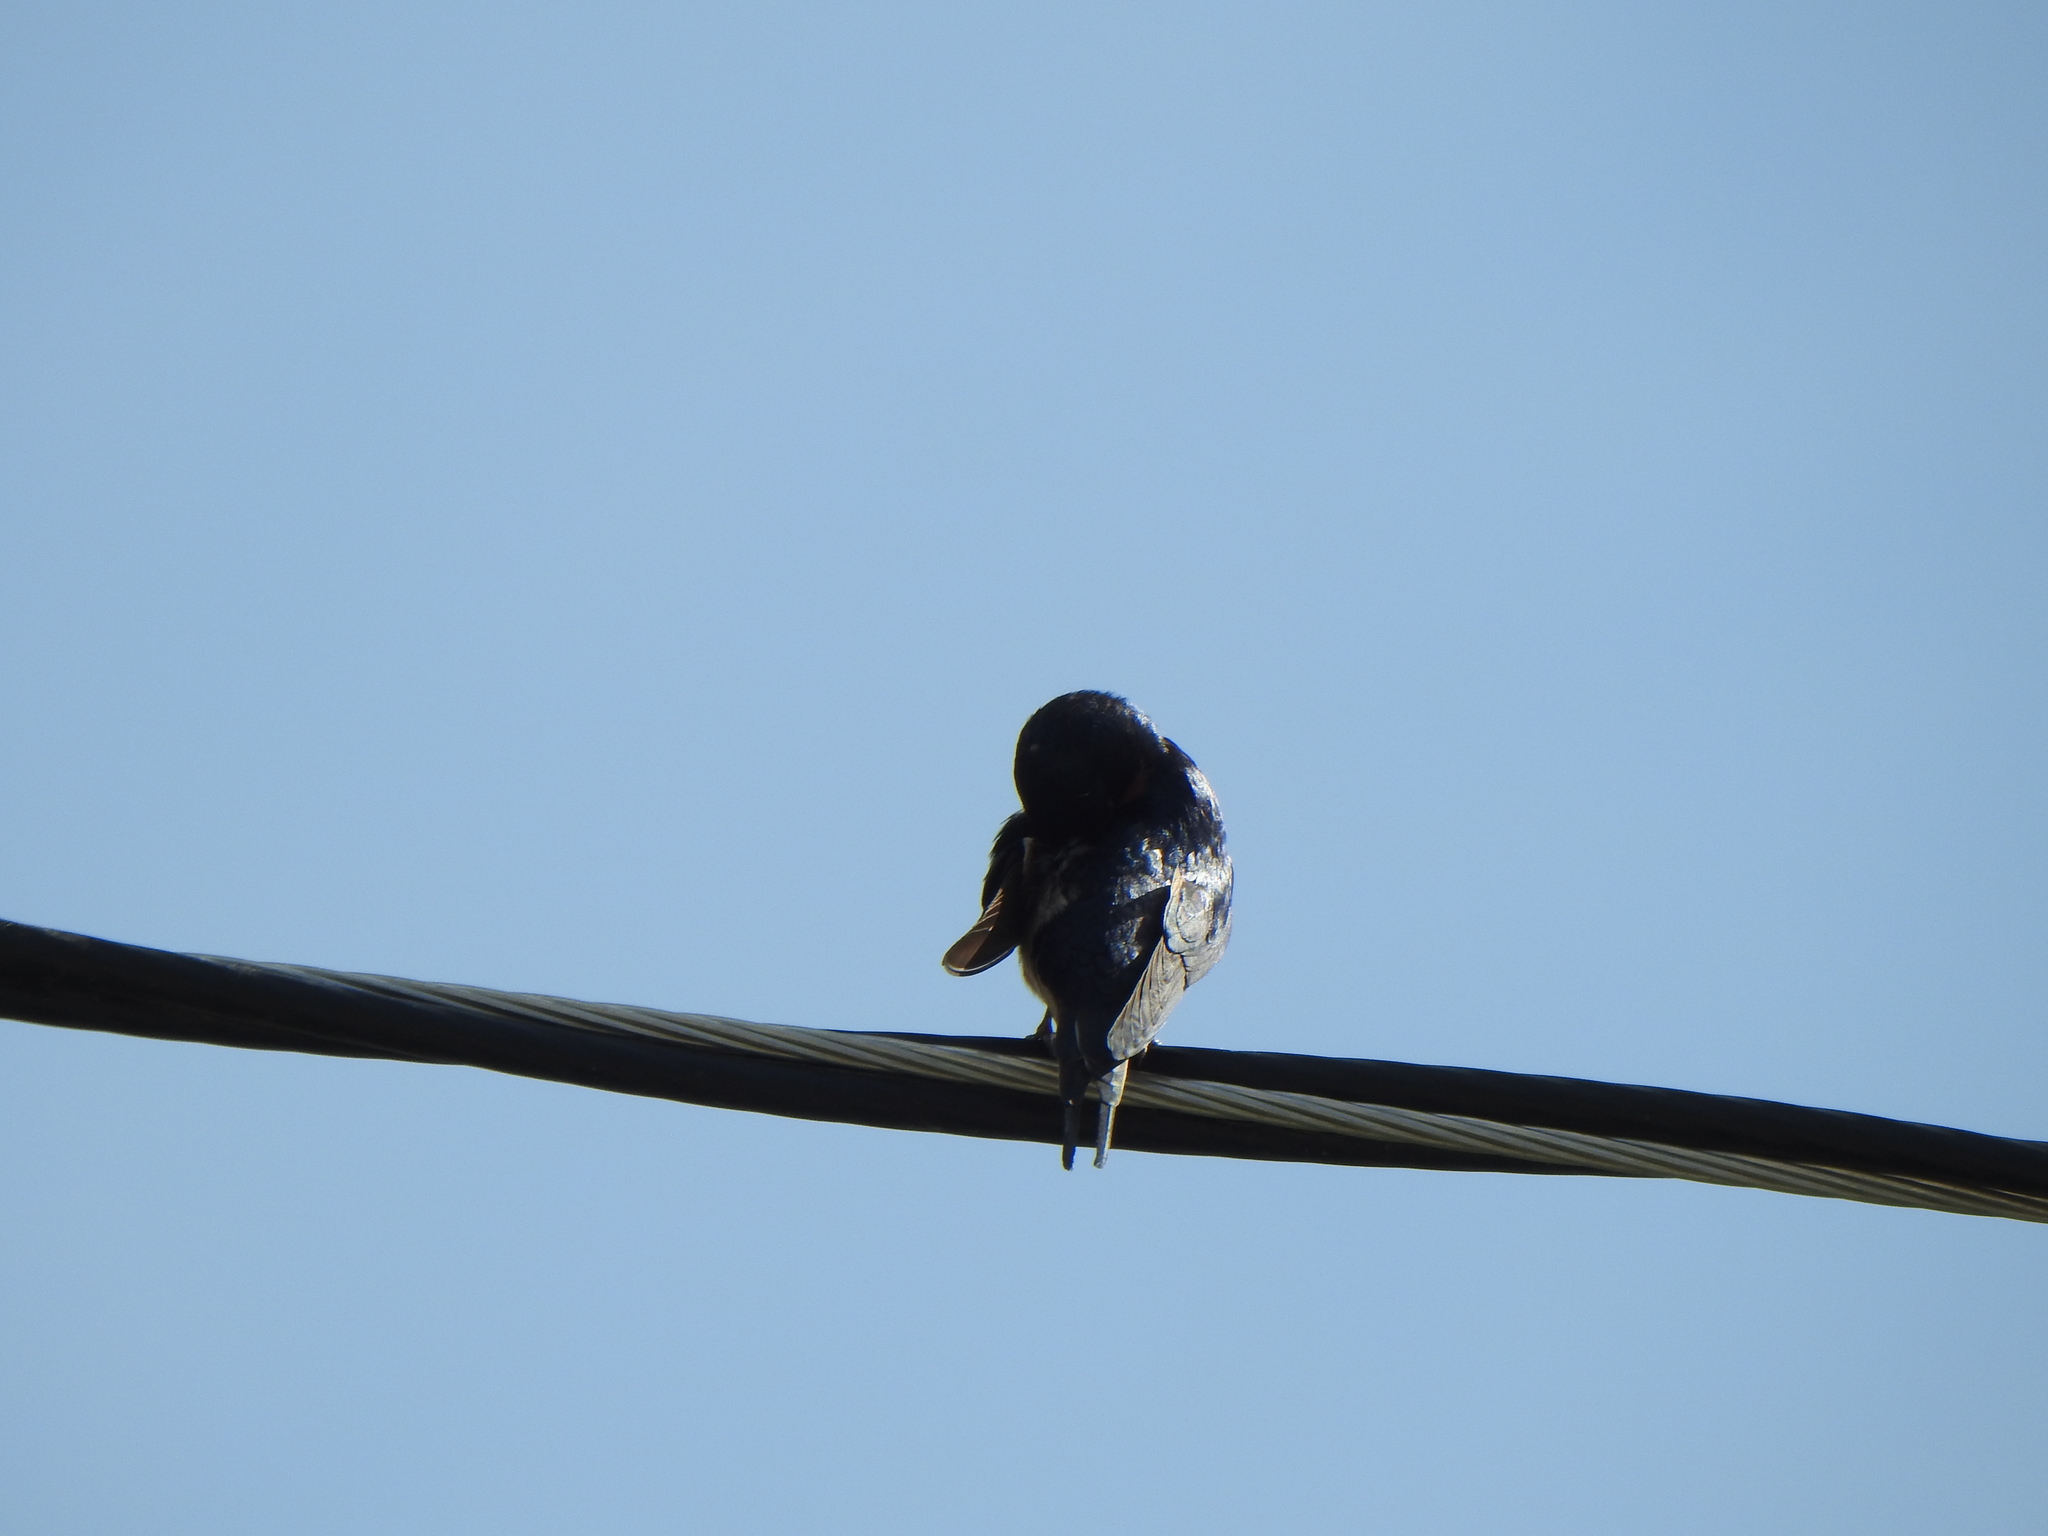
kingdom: Animalia
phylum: Chordata
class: Aves
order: Passeriformes
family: Hirundinidae
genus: Hirundo
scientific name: Hirundo rustica
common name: Barn swallow
